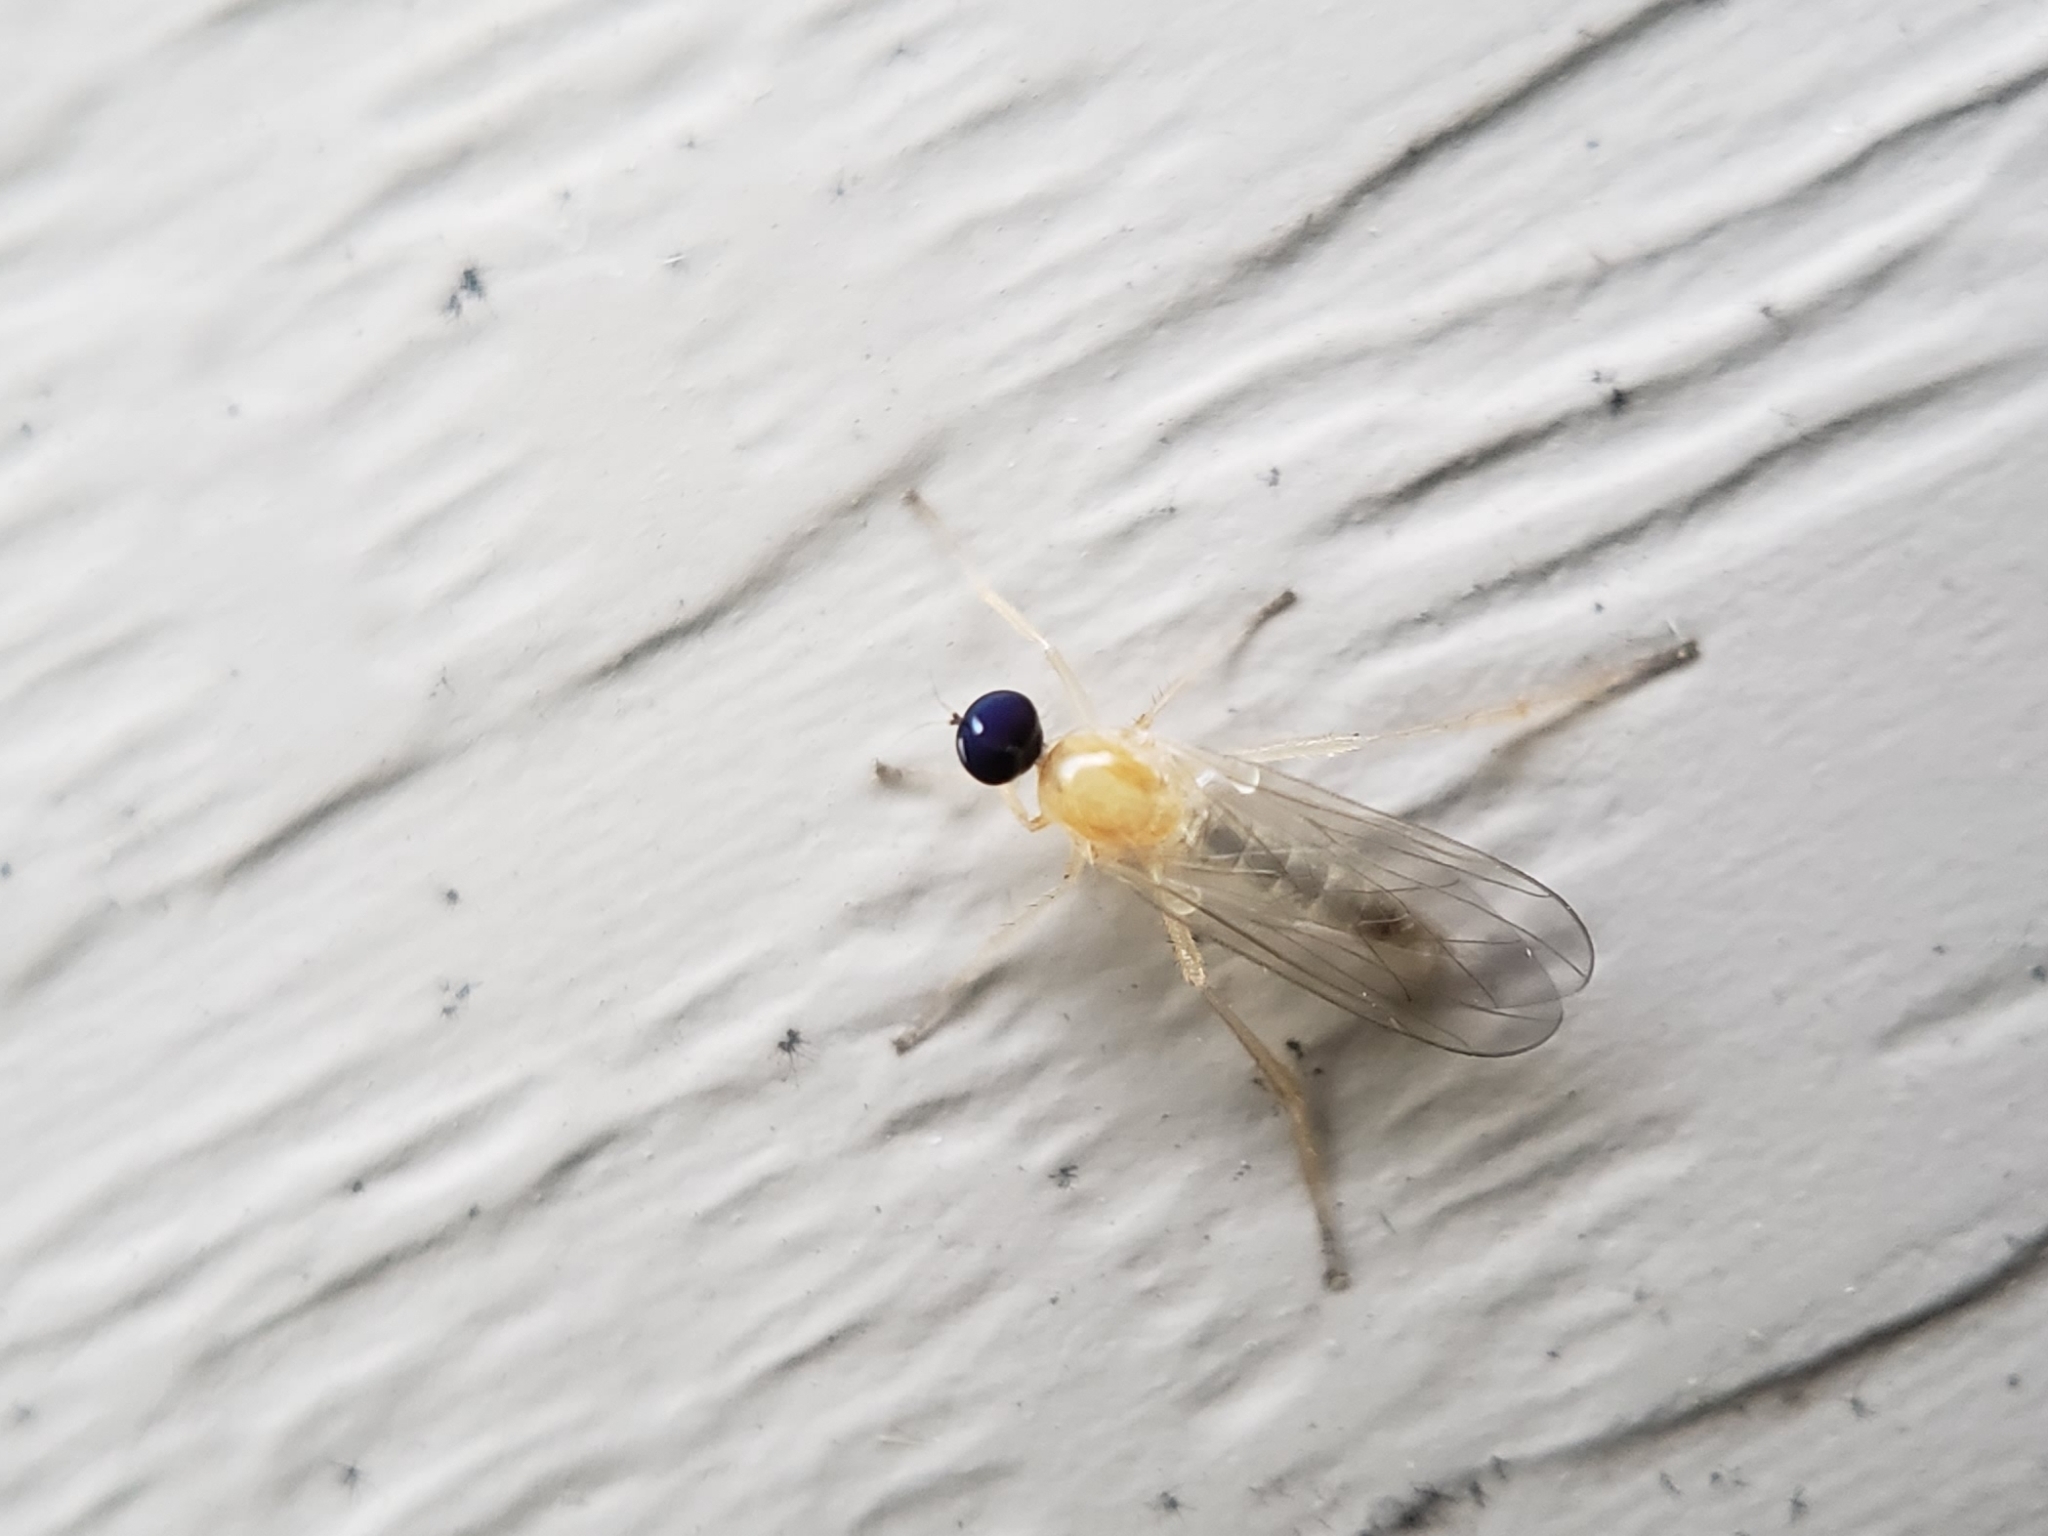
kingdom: Animalia
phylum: Arthropoda
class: Insecta
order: Diptera
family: Hybotidae
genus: Leptopeza
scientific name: Leptopeza compta
